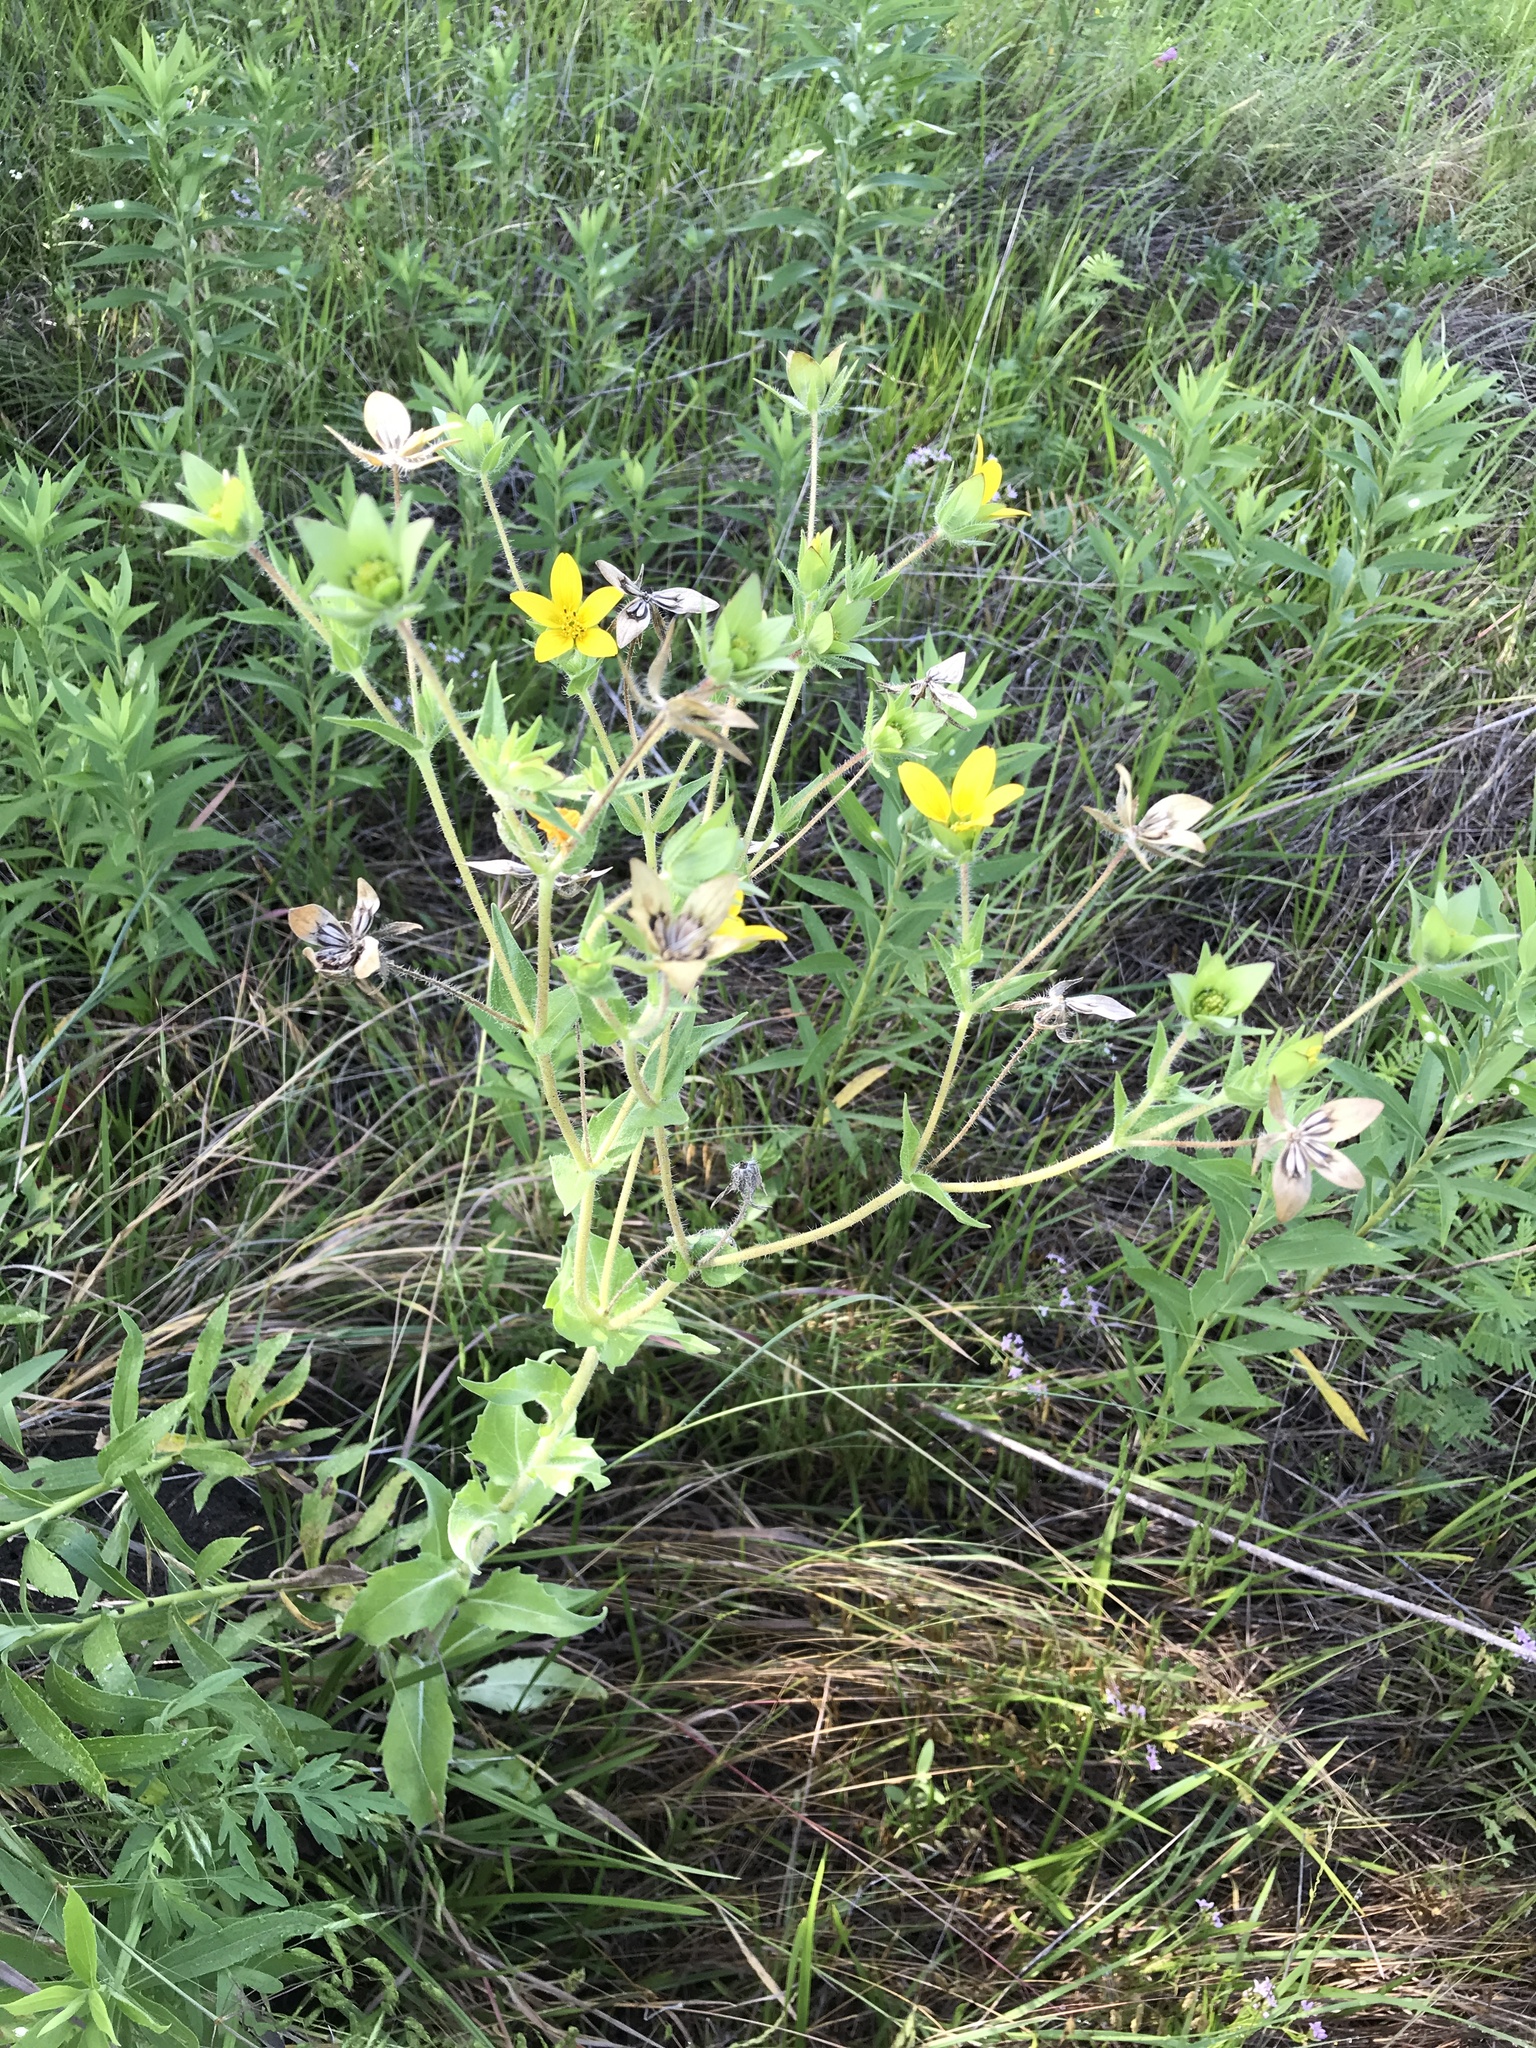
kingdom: Plantae
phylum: Tracheophyta
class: Magnoliopsida
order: Asterales
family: Asteraceae
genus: Lindheimera
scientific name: Lindheimera texana
